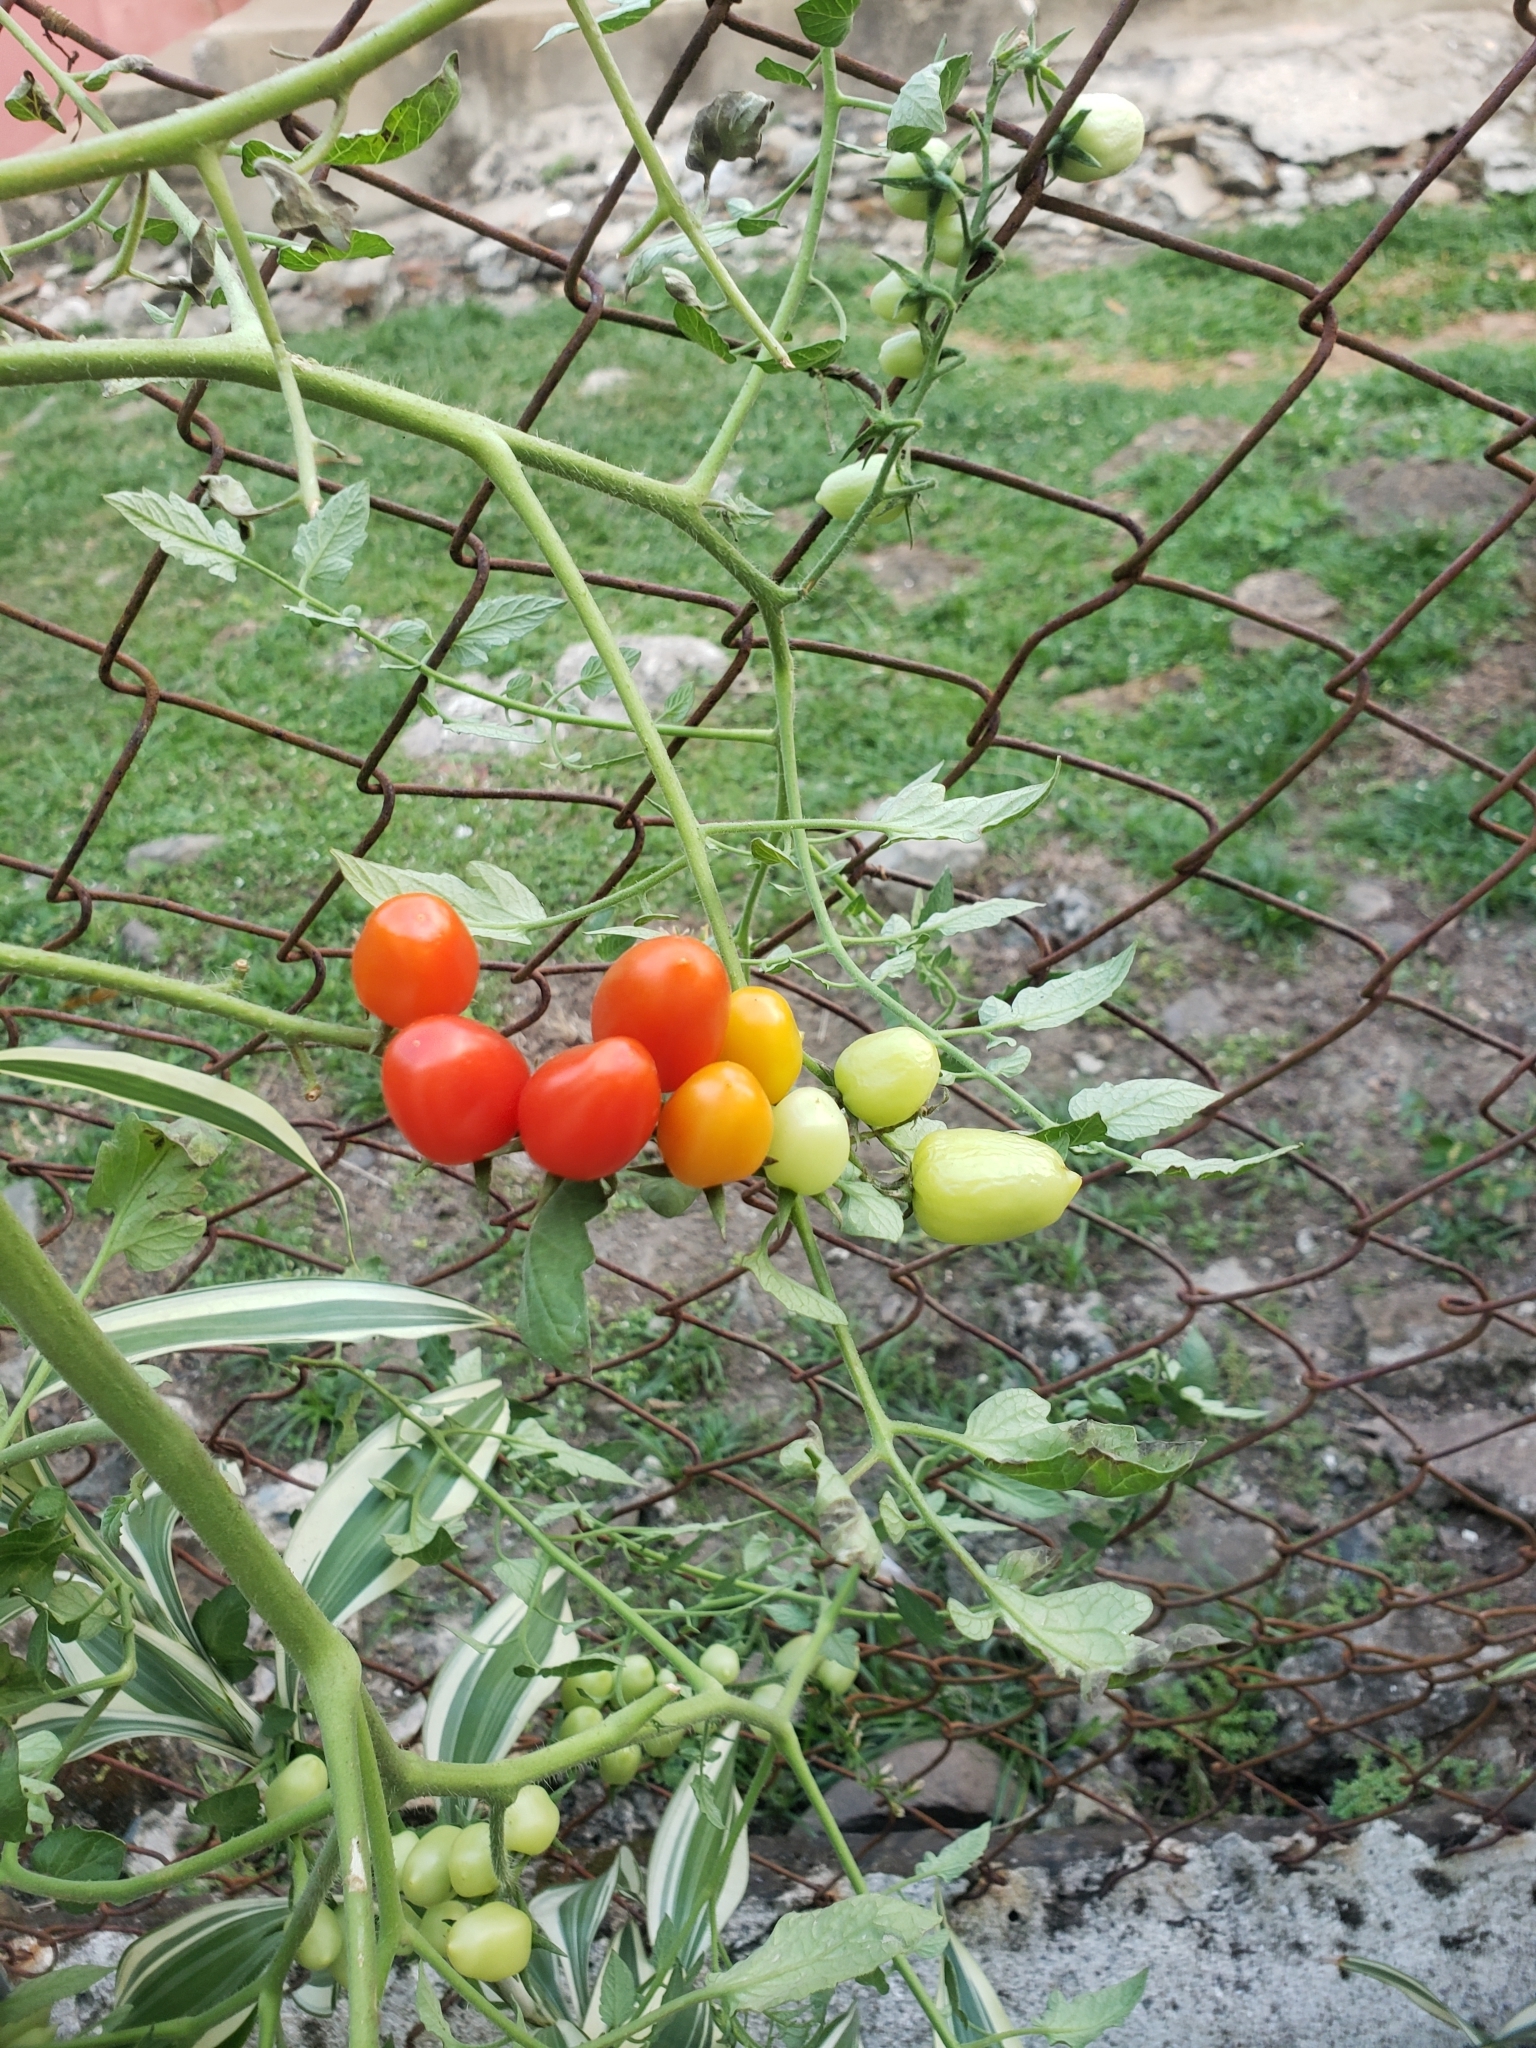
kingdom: Plantae
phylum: Tracheophyta
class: Magnoliopsida
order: Solanales
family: Solanaceae
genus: Solanum
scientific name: Solanum lycopersicum
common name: Garden tomato
